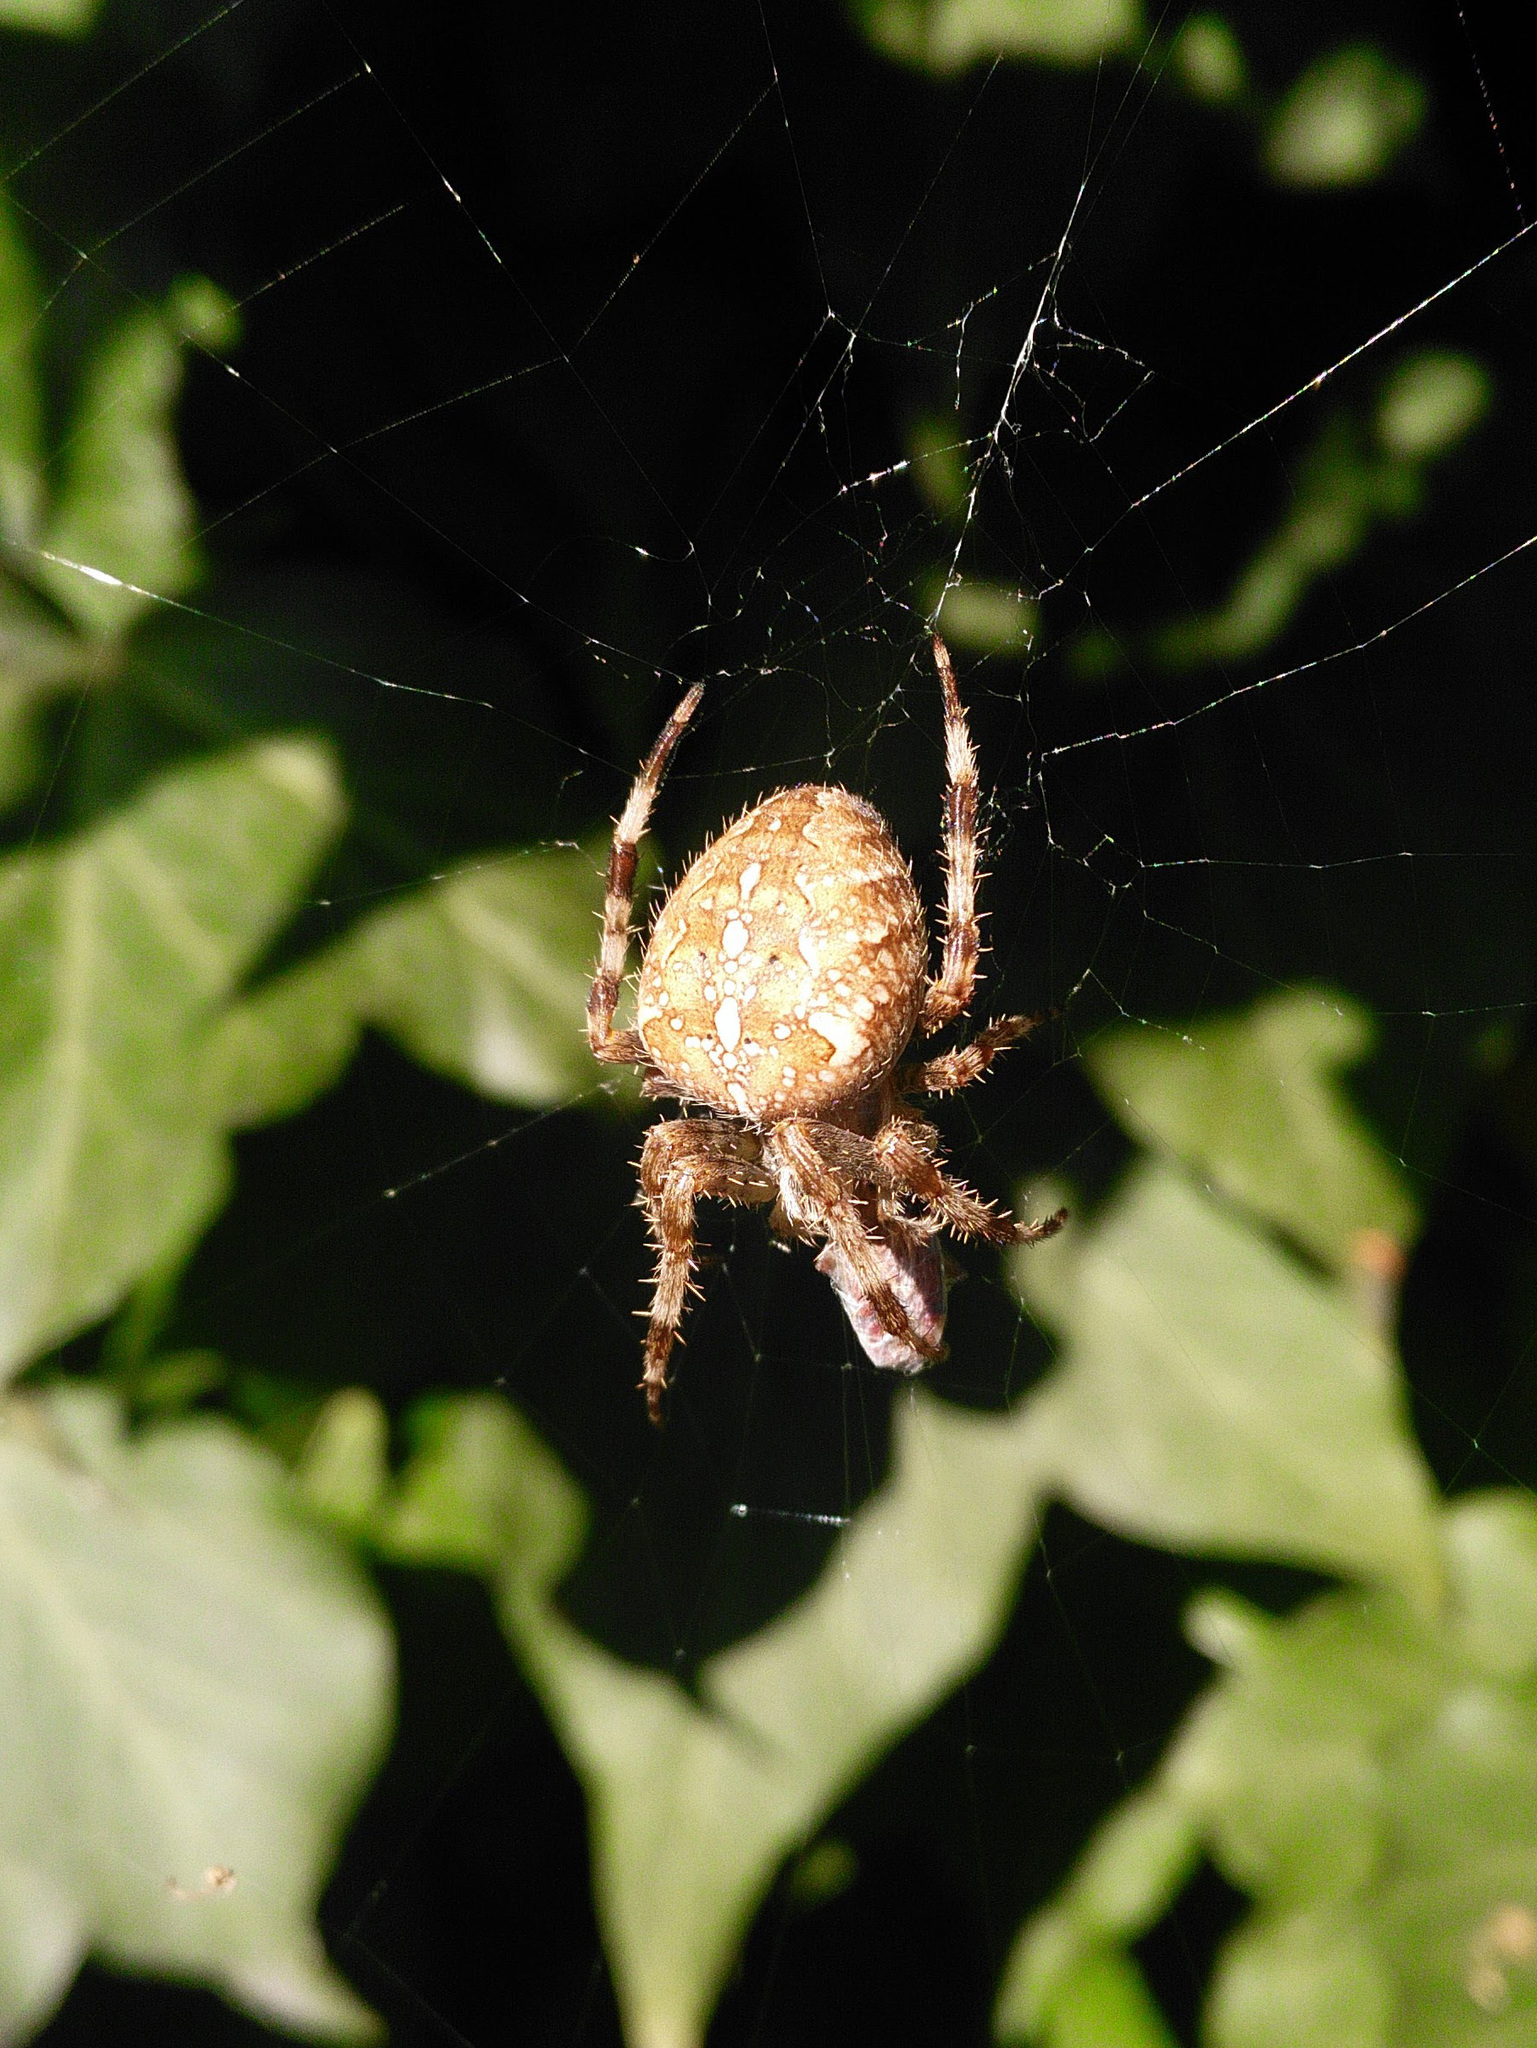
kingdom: Animalia
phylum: Arthropoda
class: Arachnida
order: Araneae
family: Araneidae
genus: Araneus
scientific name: Araneus diadematus
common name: Cross orbweaver
